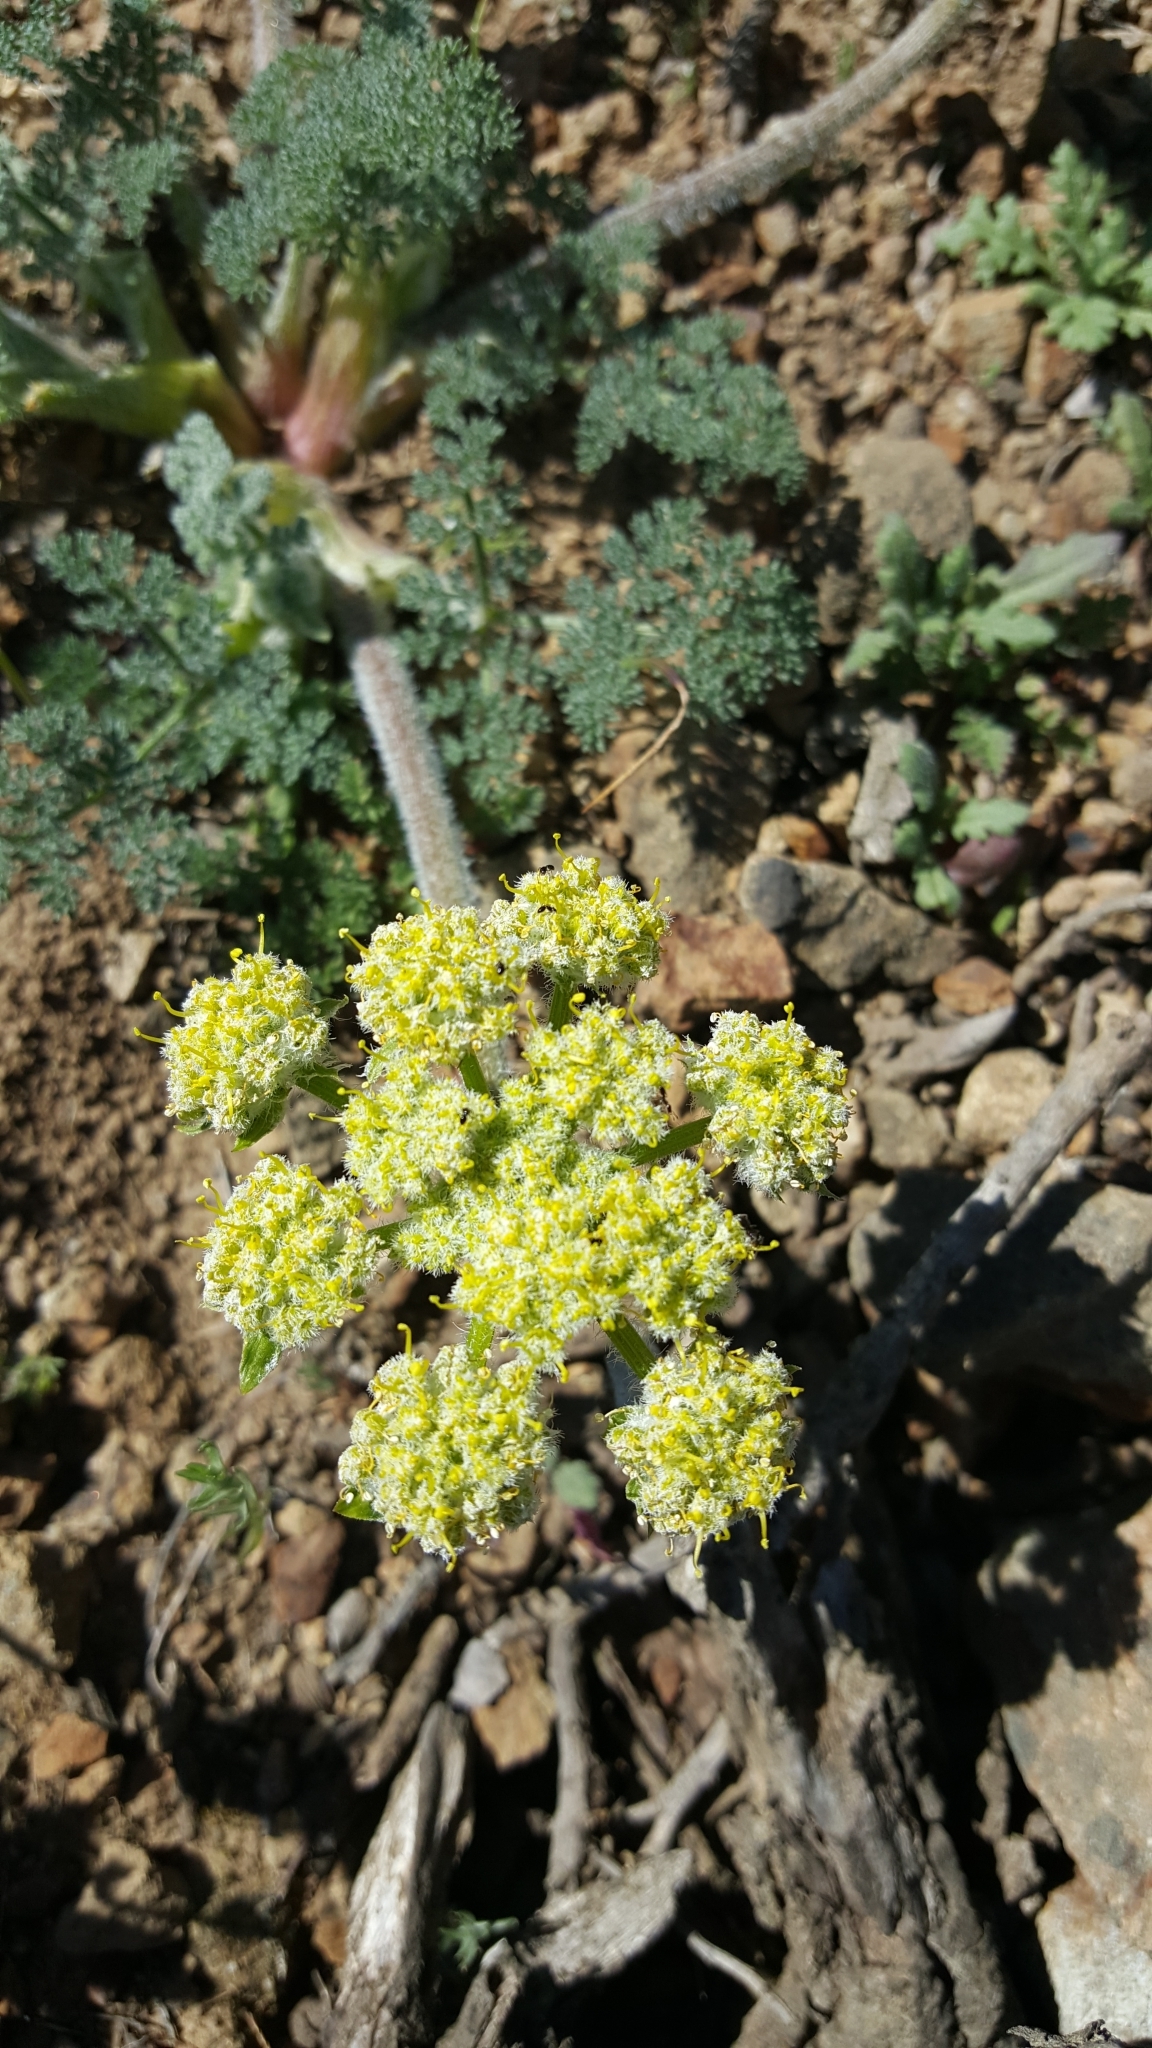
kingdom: Plantae
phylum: Tracheophyta
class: Magnoliopsida
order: Apiales
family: Apiaceae
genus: Lomatium
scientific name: Lomatium dasycarpum
